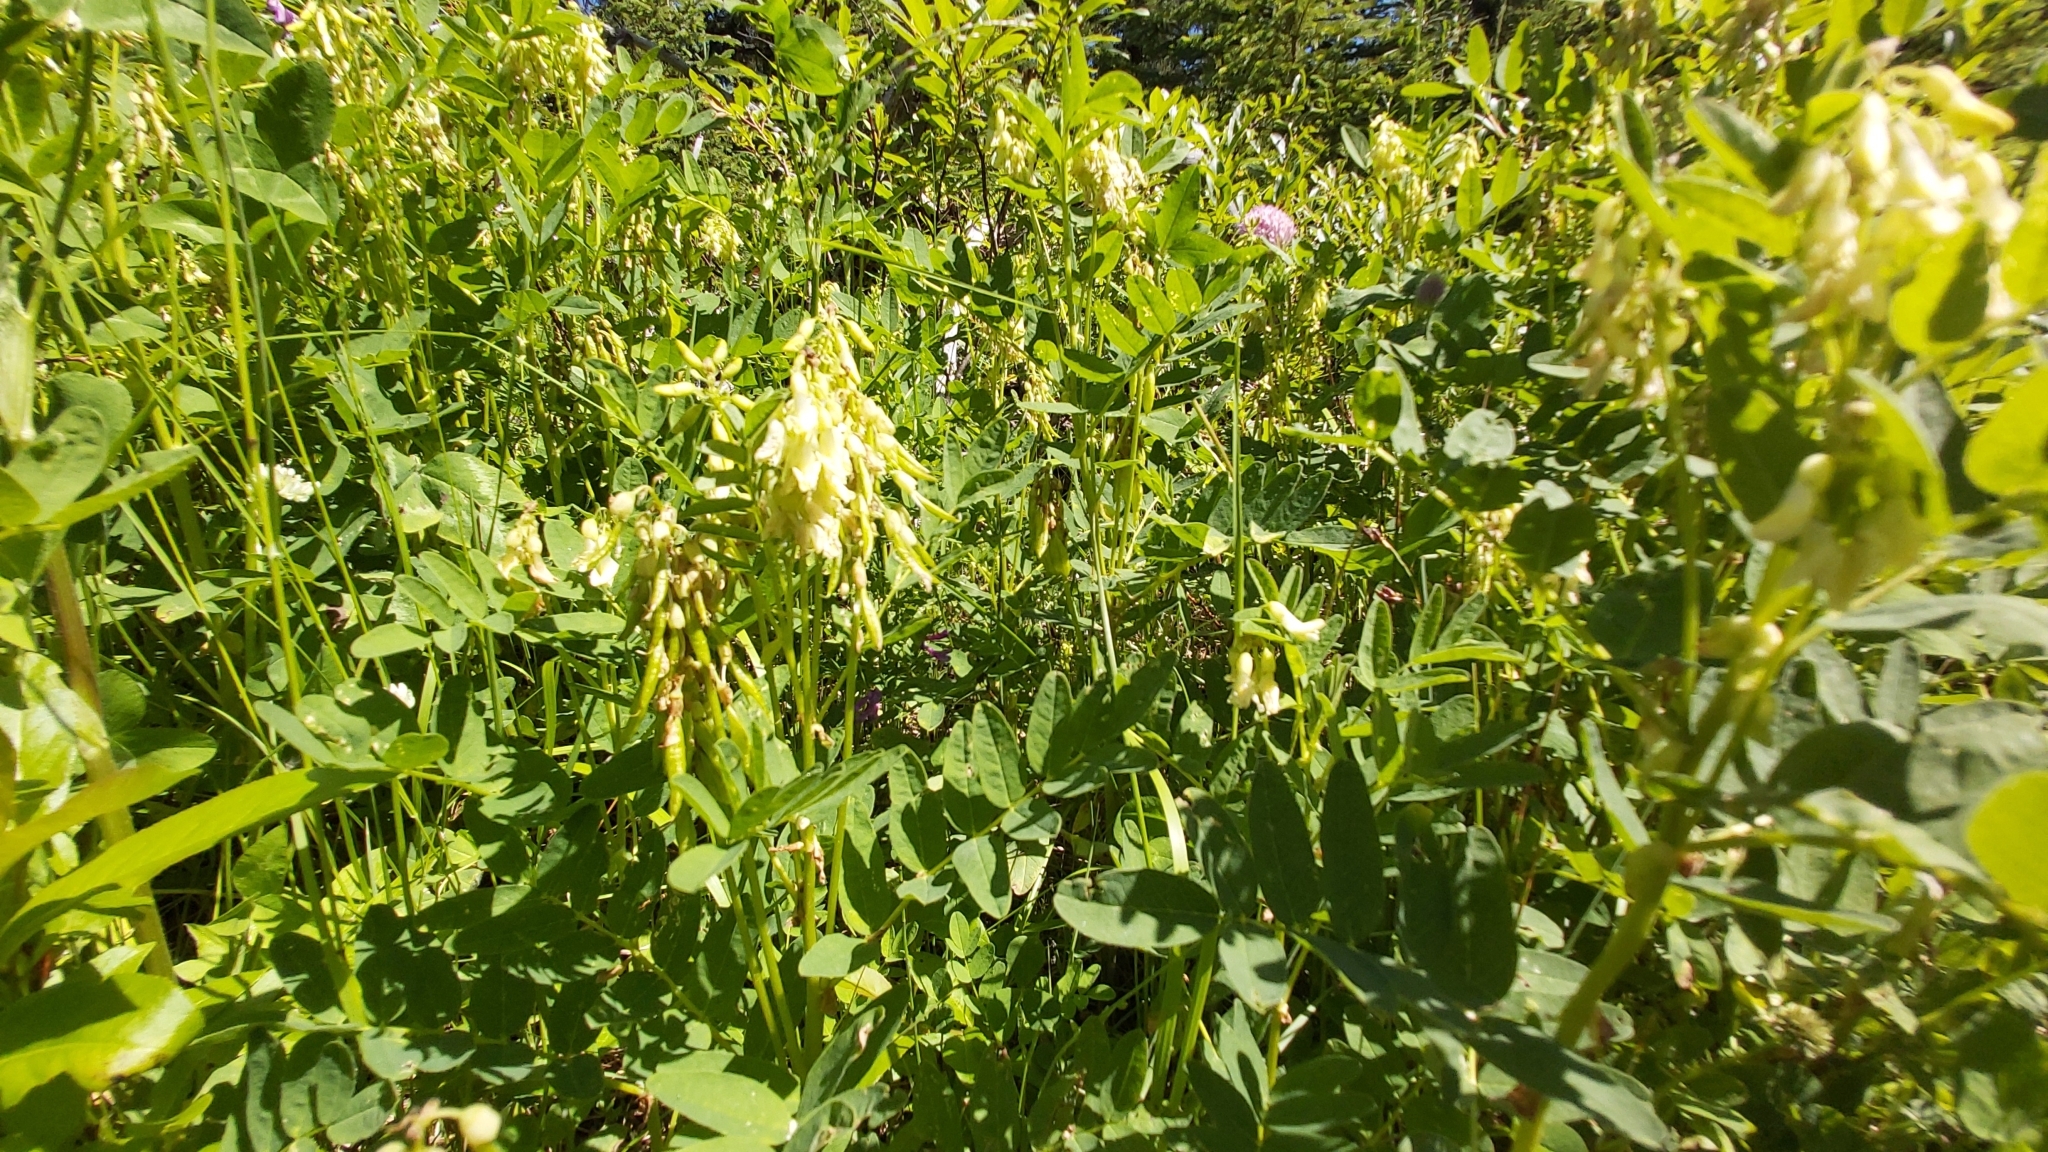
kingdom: Plantae
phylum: Tracheophyta
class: Magnoliopsida
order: Fabales
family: Fabaceae
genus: Astragalus
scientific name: Astragalus americanus
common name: American milk-vetch
